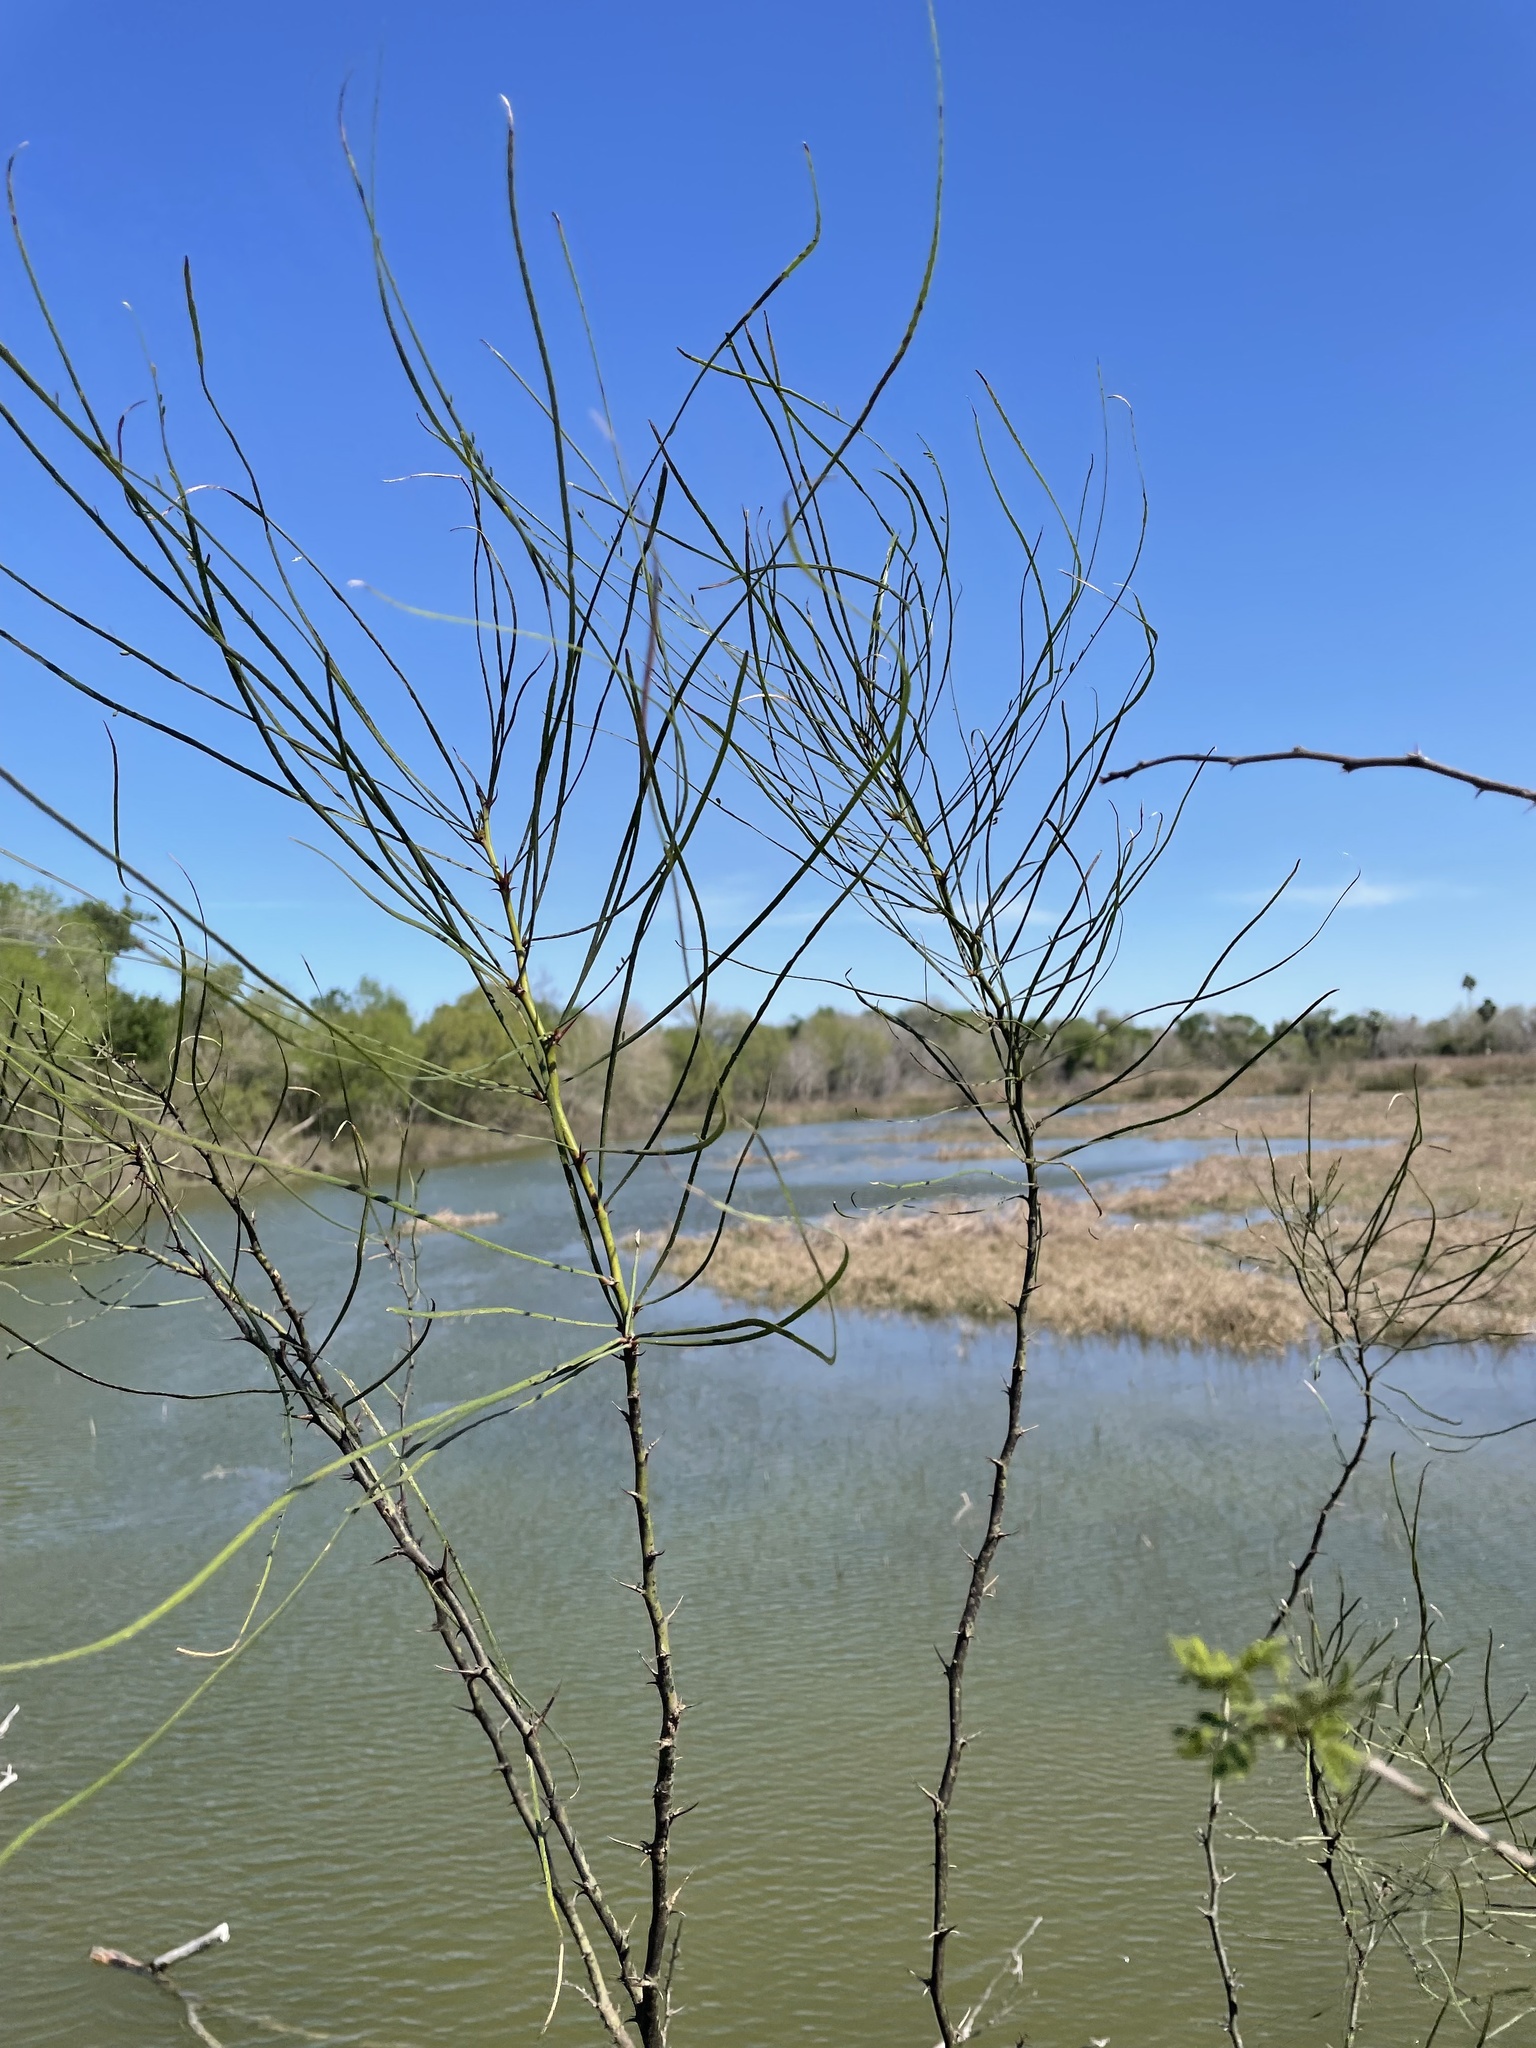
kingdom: Plantae
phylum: Tracheophyta
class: Magnoliopsida
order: Fabales
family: Fabaceae
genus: Parkinsonia
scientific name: Parkinsonia aculeata
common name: Jerusalem thorn
